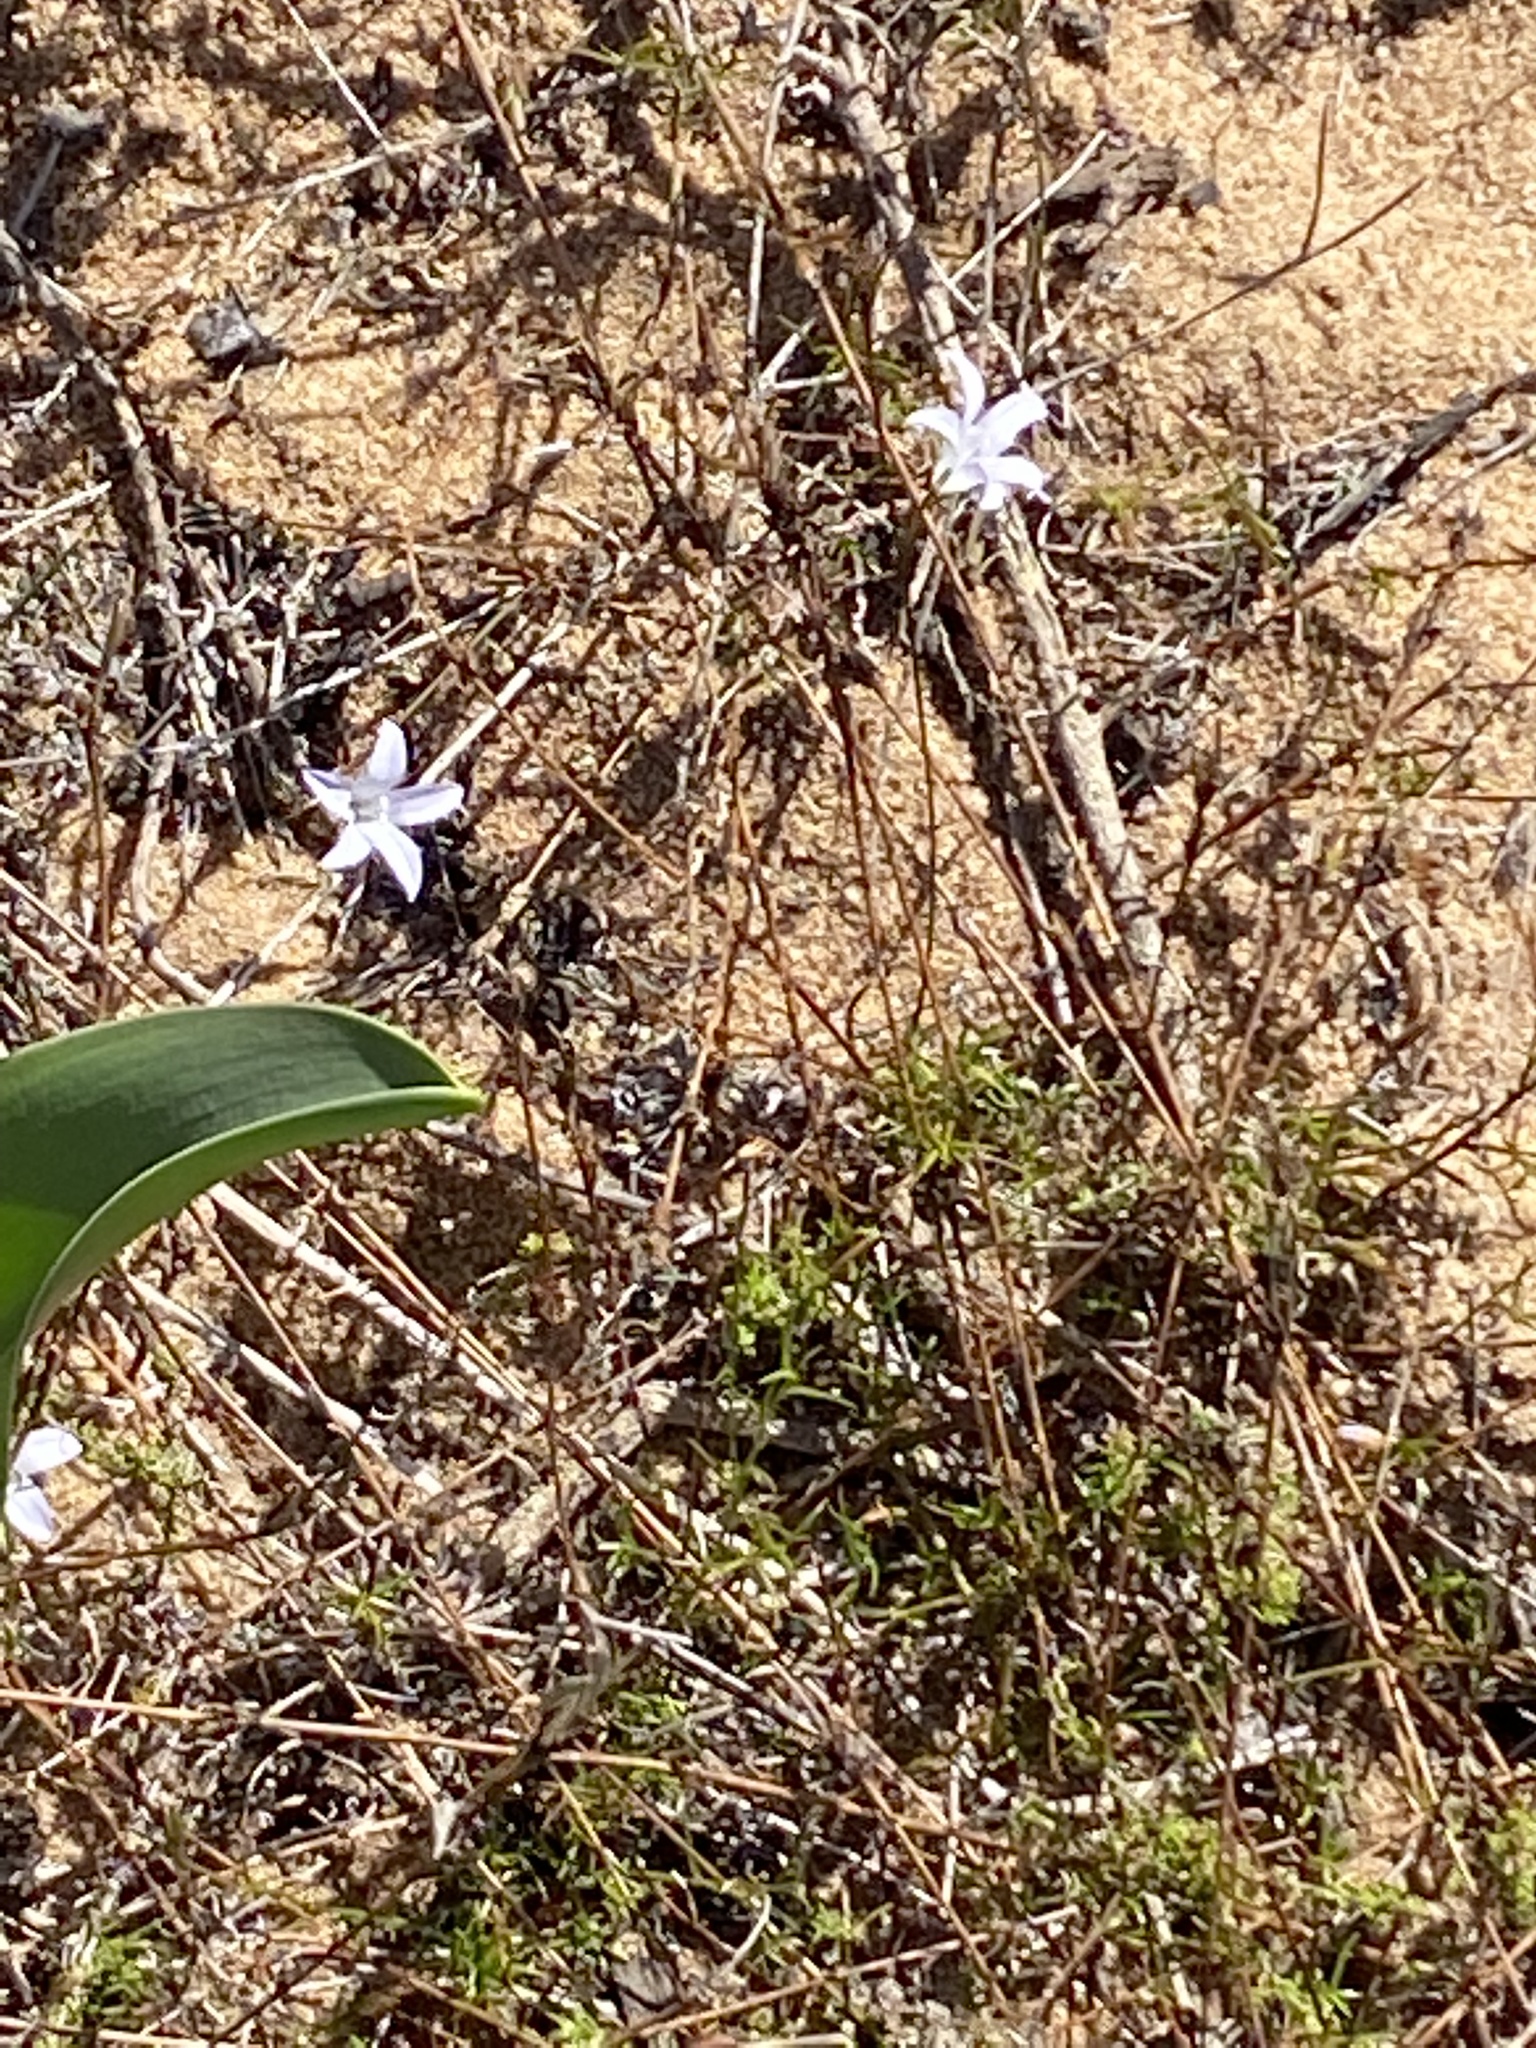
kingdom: Plantae
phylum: Tracheophyta
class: Magnoliopsida
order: Asterales
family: Campanulaceae
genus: Prismatocarpus
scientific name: Prismatocarpus campanuloides
